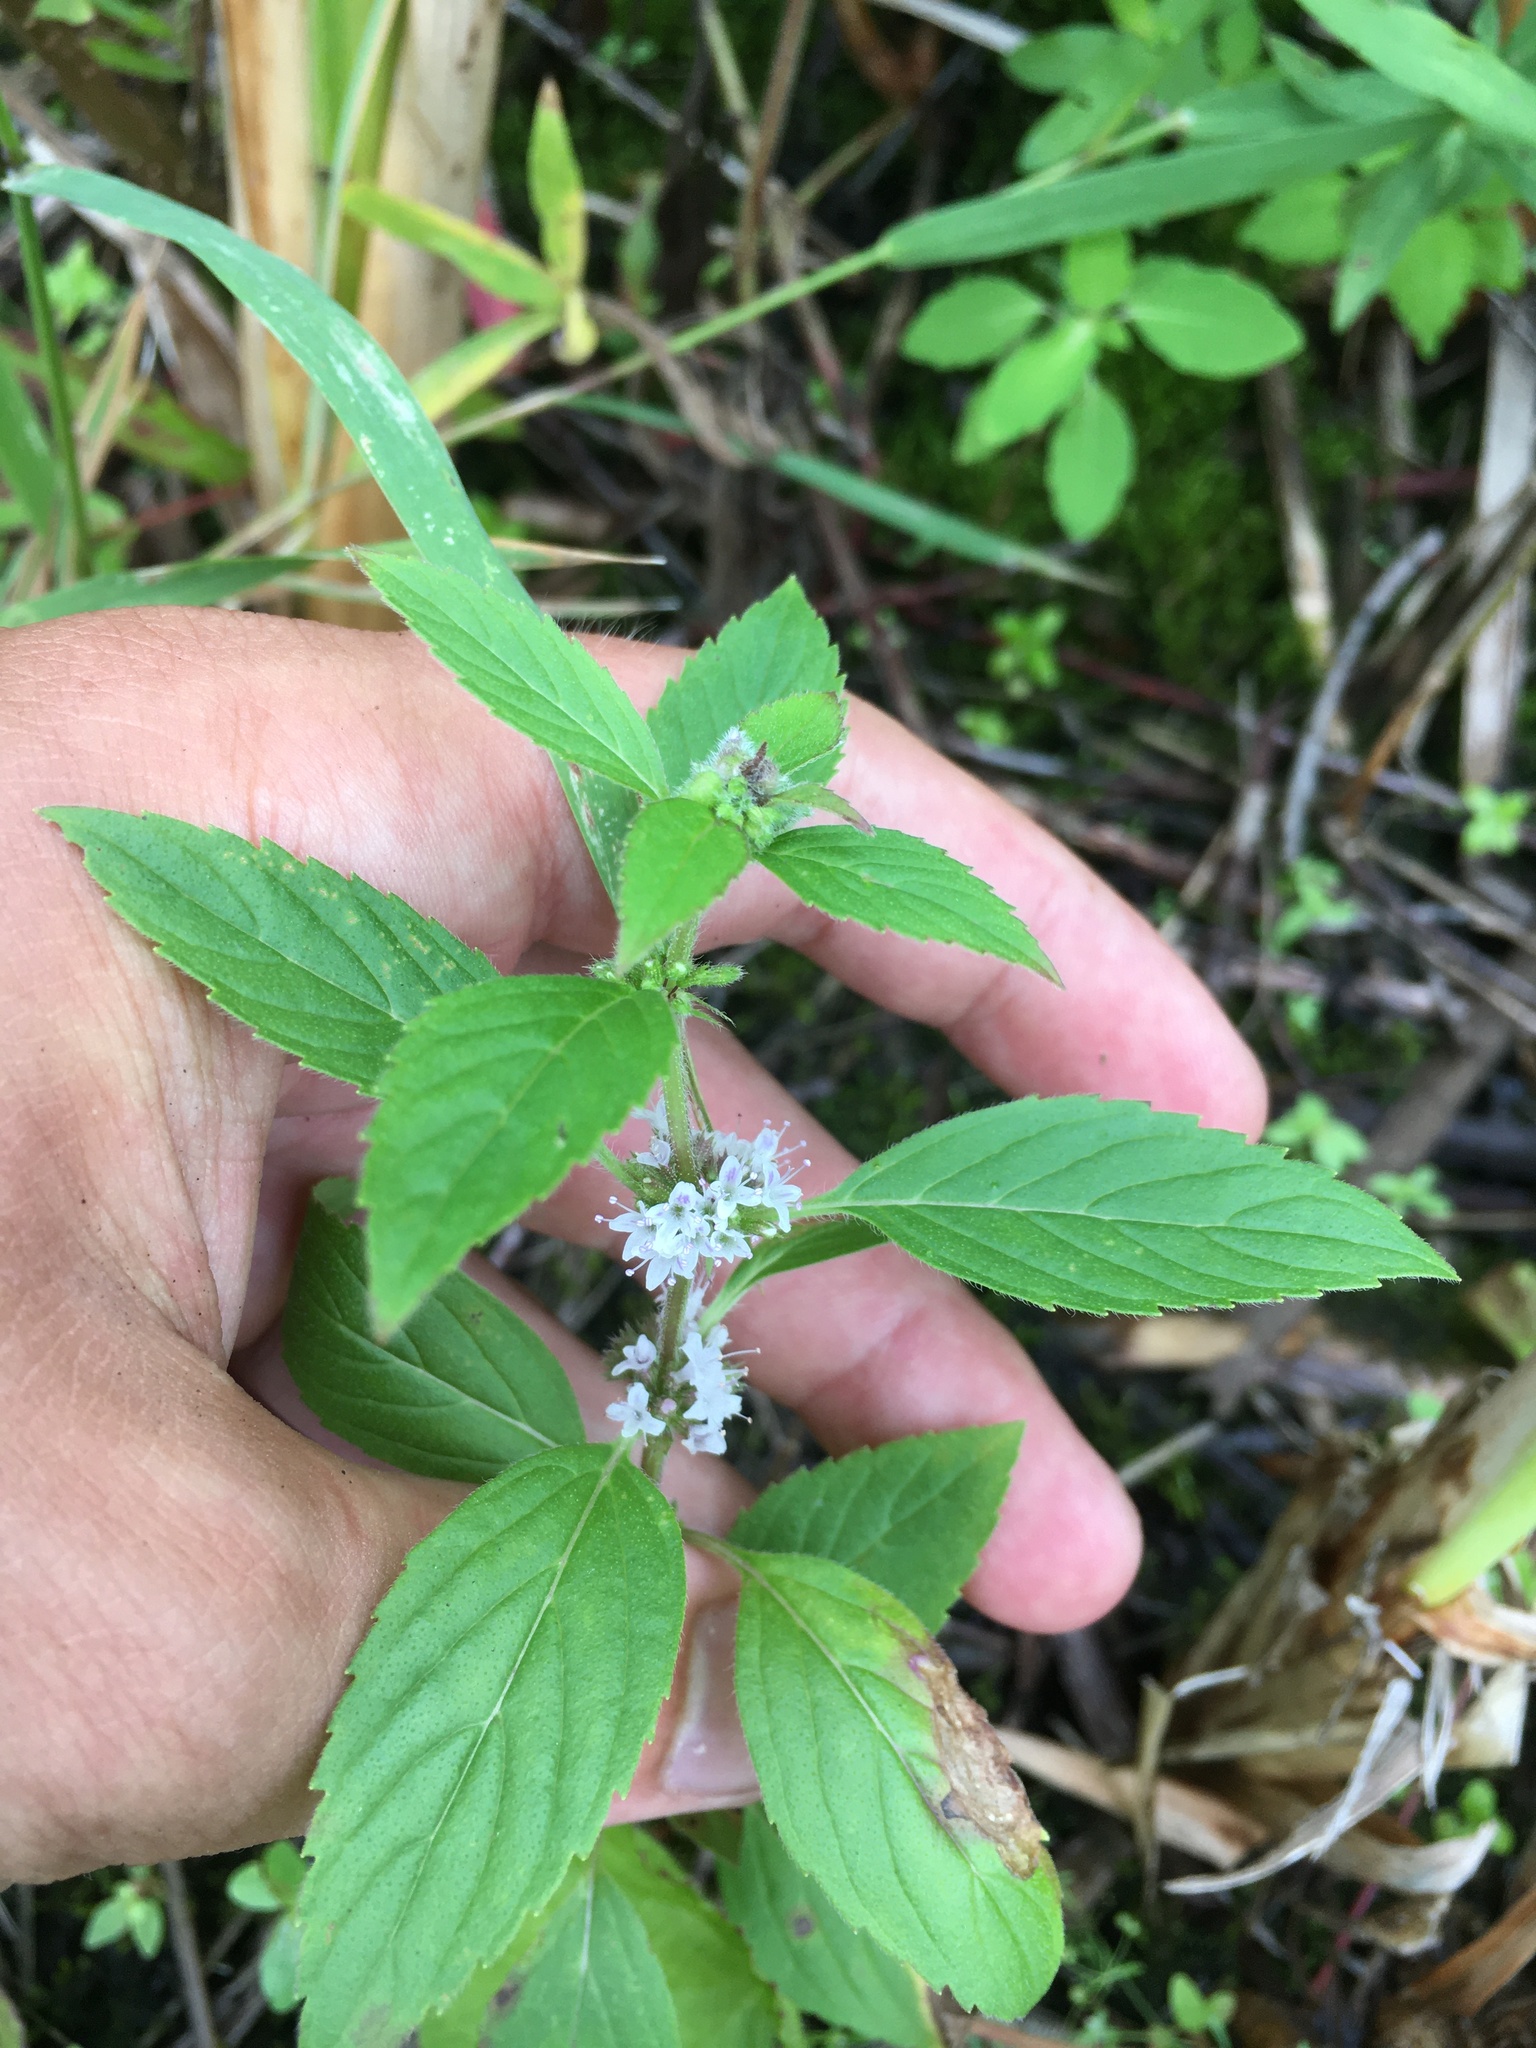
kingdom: Plantae
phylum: Tracheophyta
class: Magnoliopsida
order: Lamiales
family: Lamiaceae
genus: Mentha
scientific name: Mentha canadensis
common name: American corn mint
